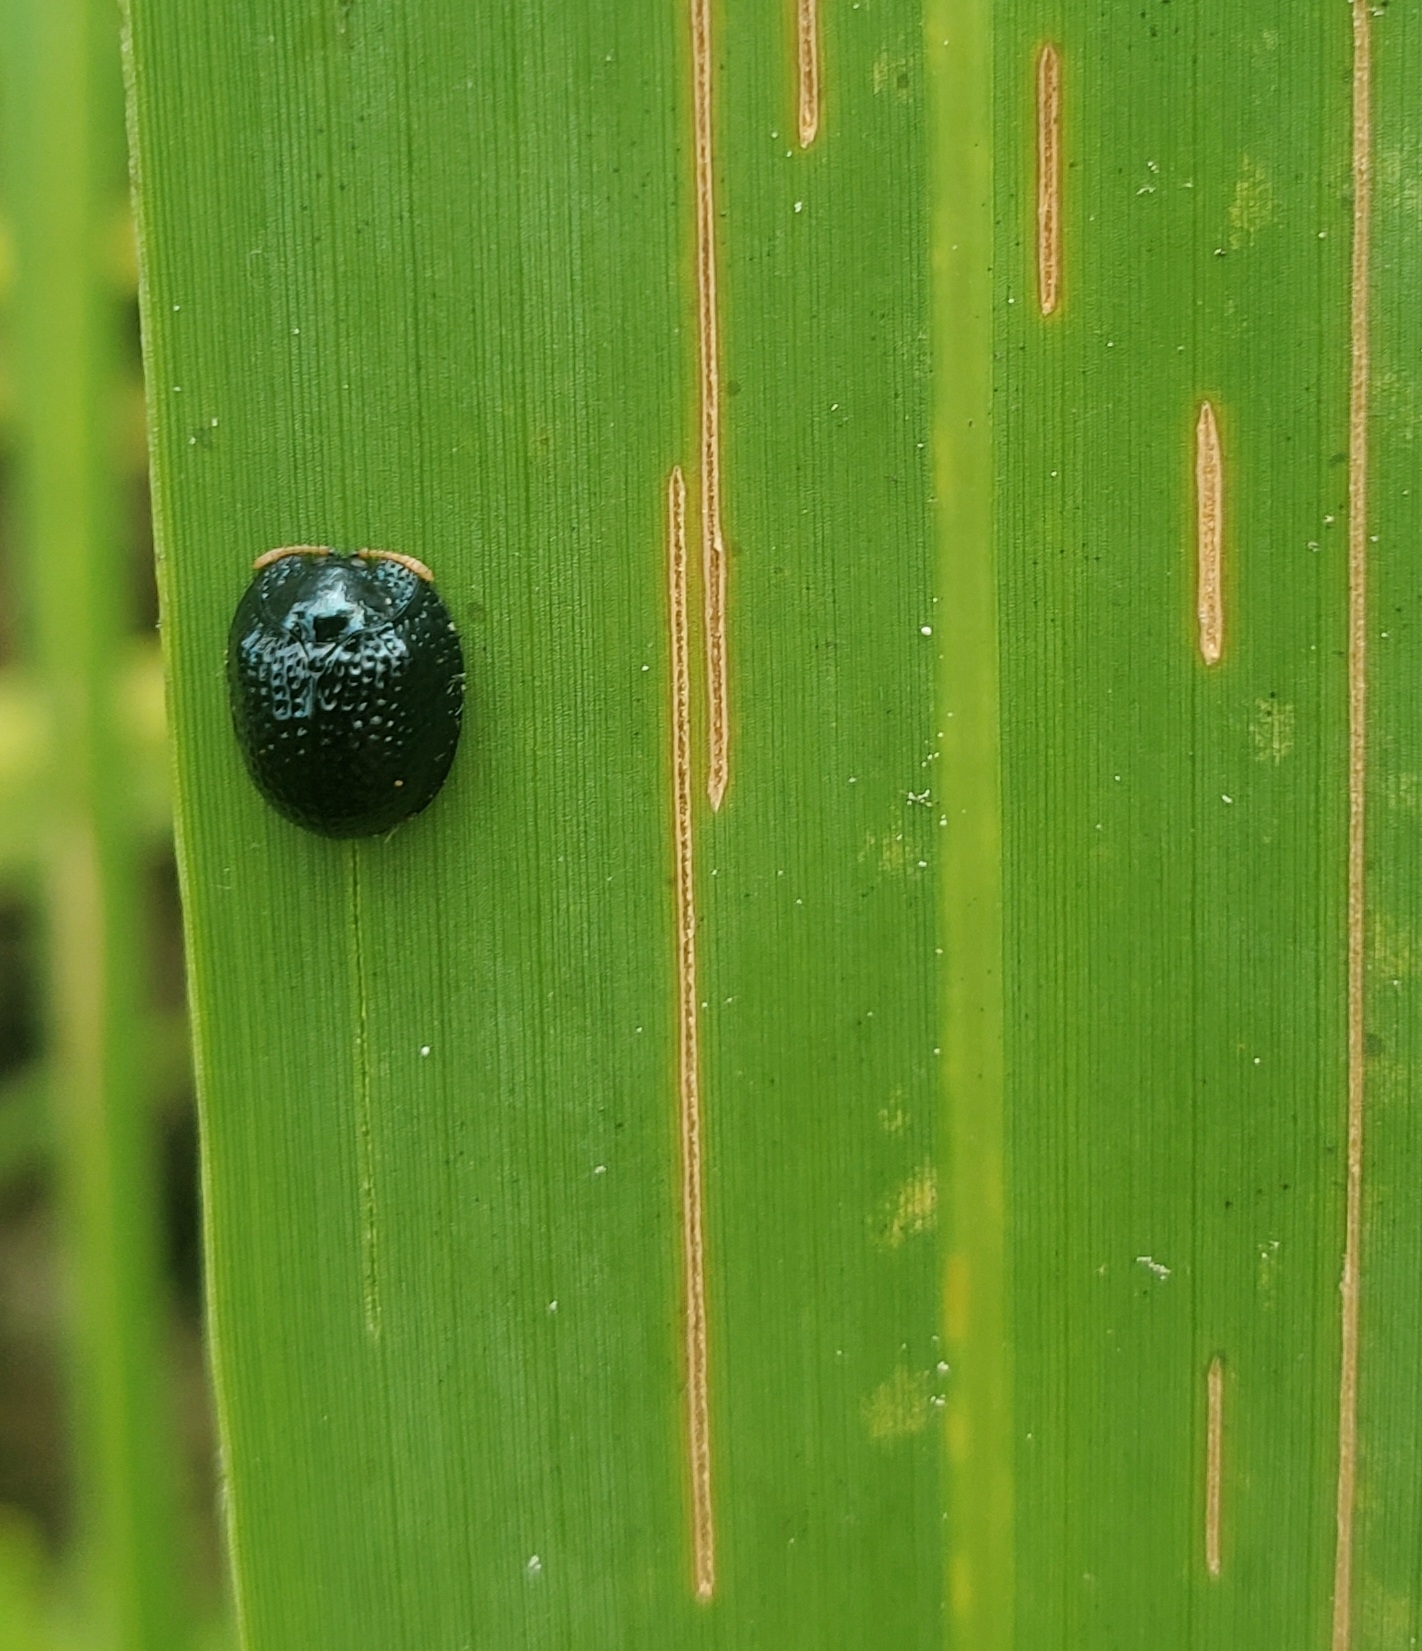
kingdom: Animalia
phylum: Arthropoda
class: Insecta
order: Coleoptera
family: Chrysomelidae
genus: Hemisphaerota
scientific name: Hemisphaerota cyanea
